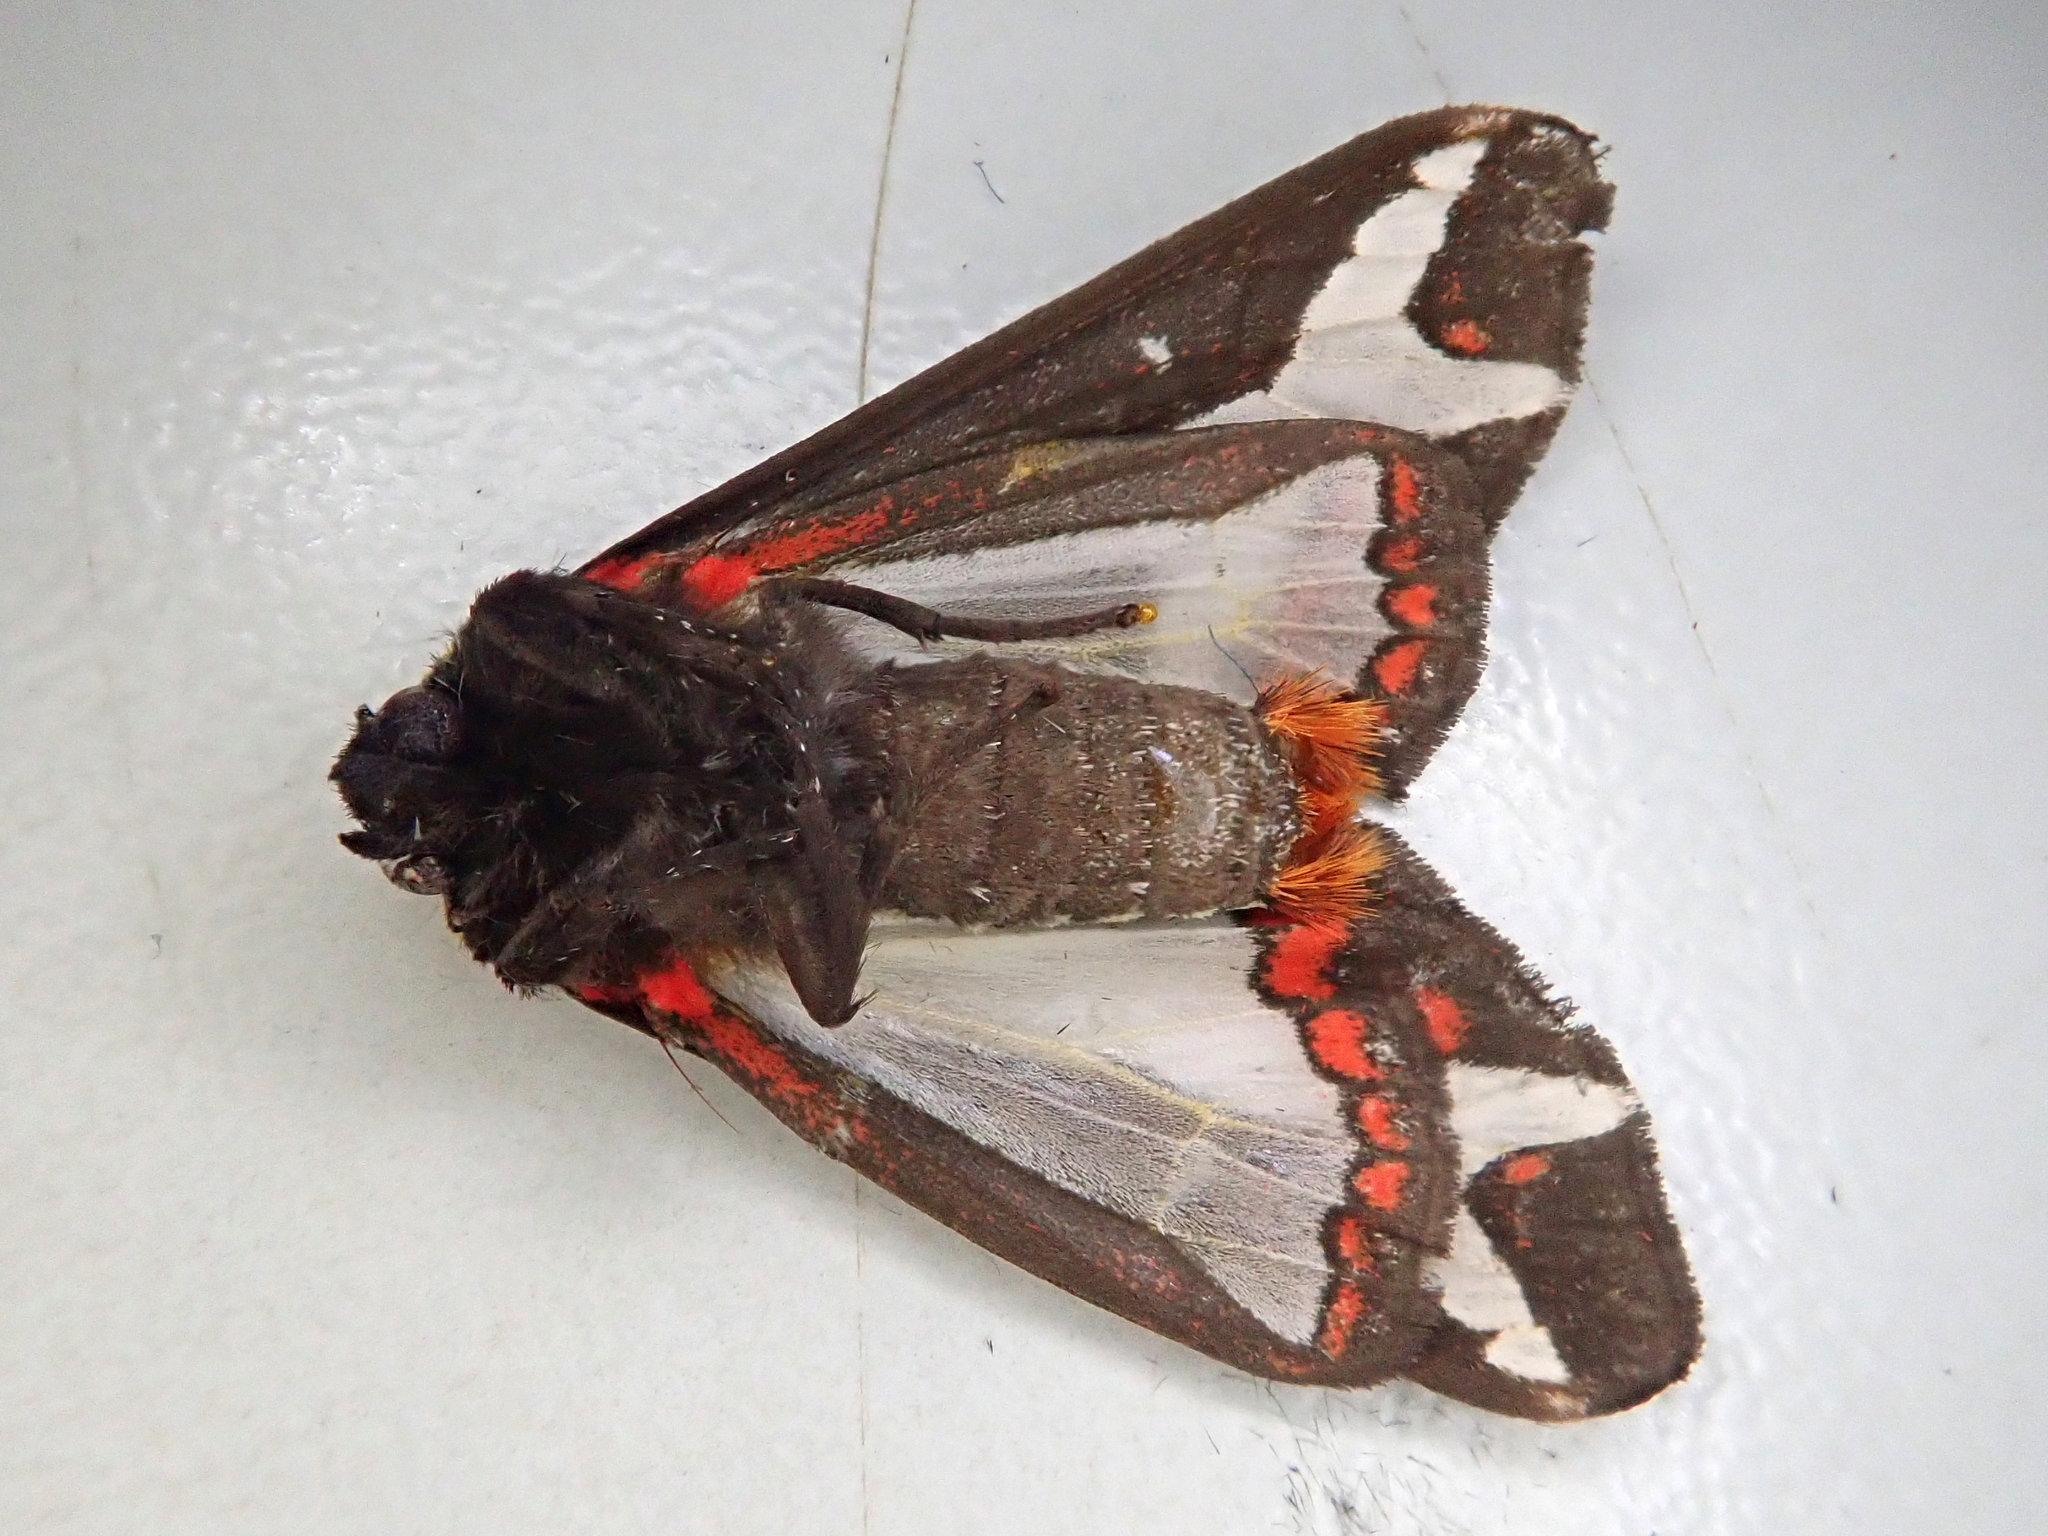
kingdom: Animalia
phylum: Arthropoda
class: Insecta
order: Lepidoptera
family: Erebidae
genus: Dysschema
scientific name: Dysschema sacrifica
